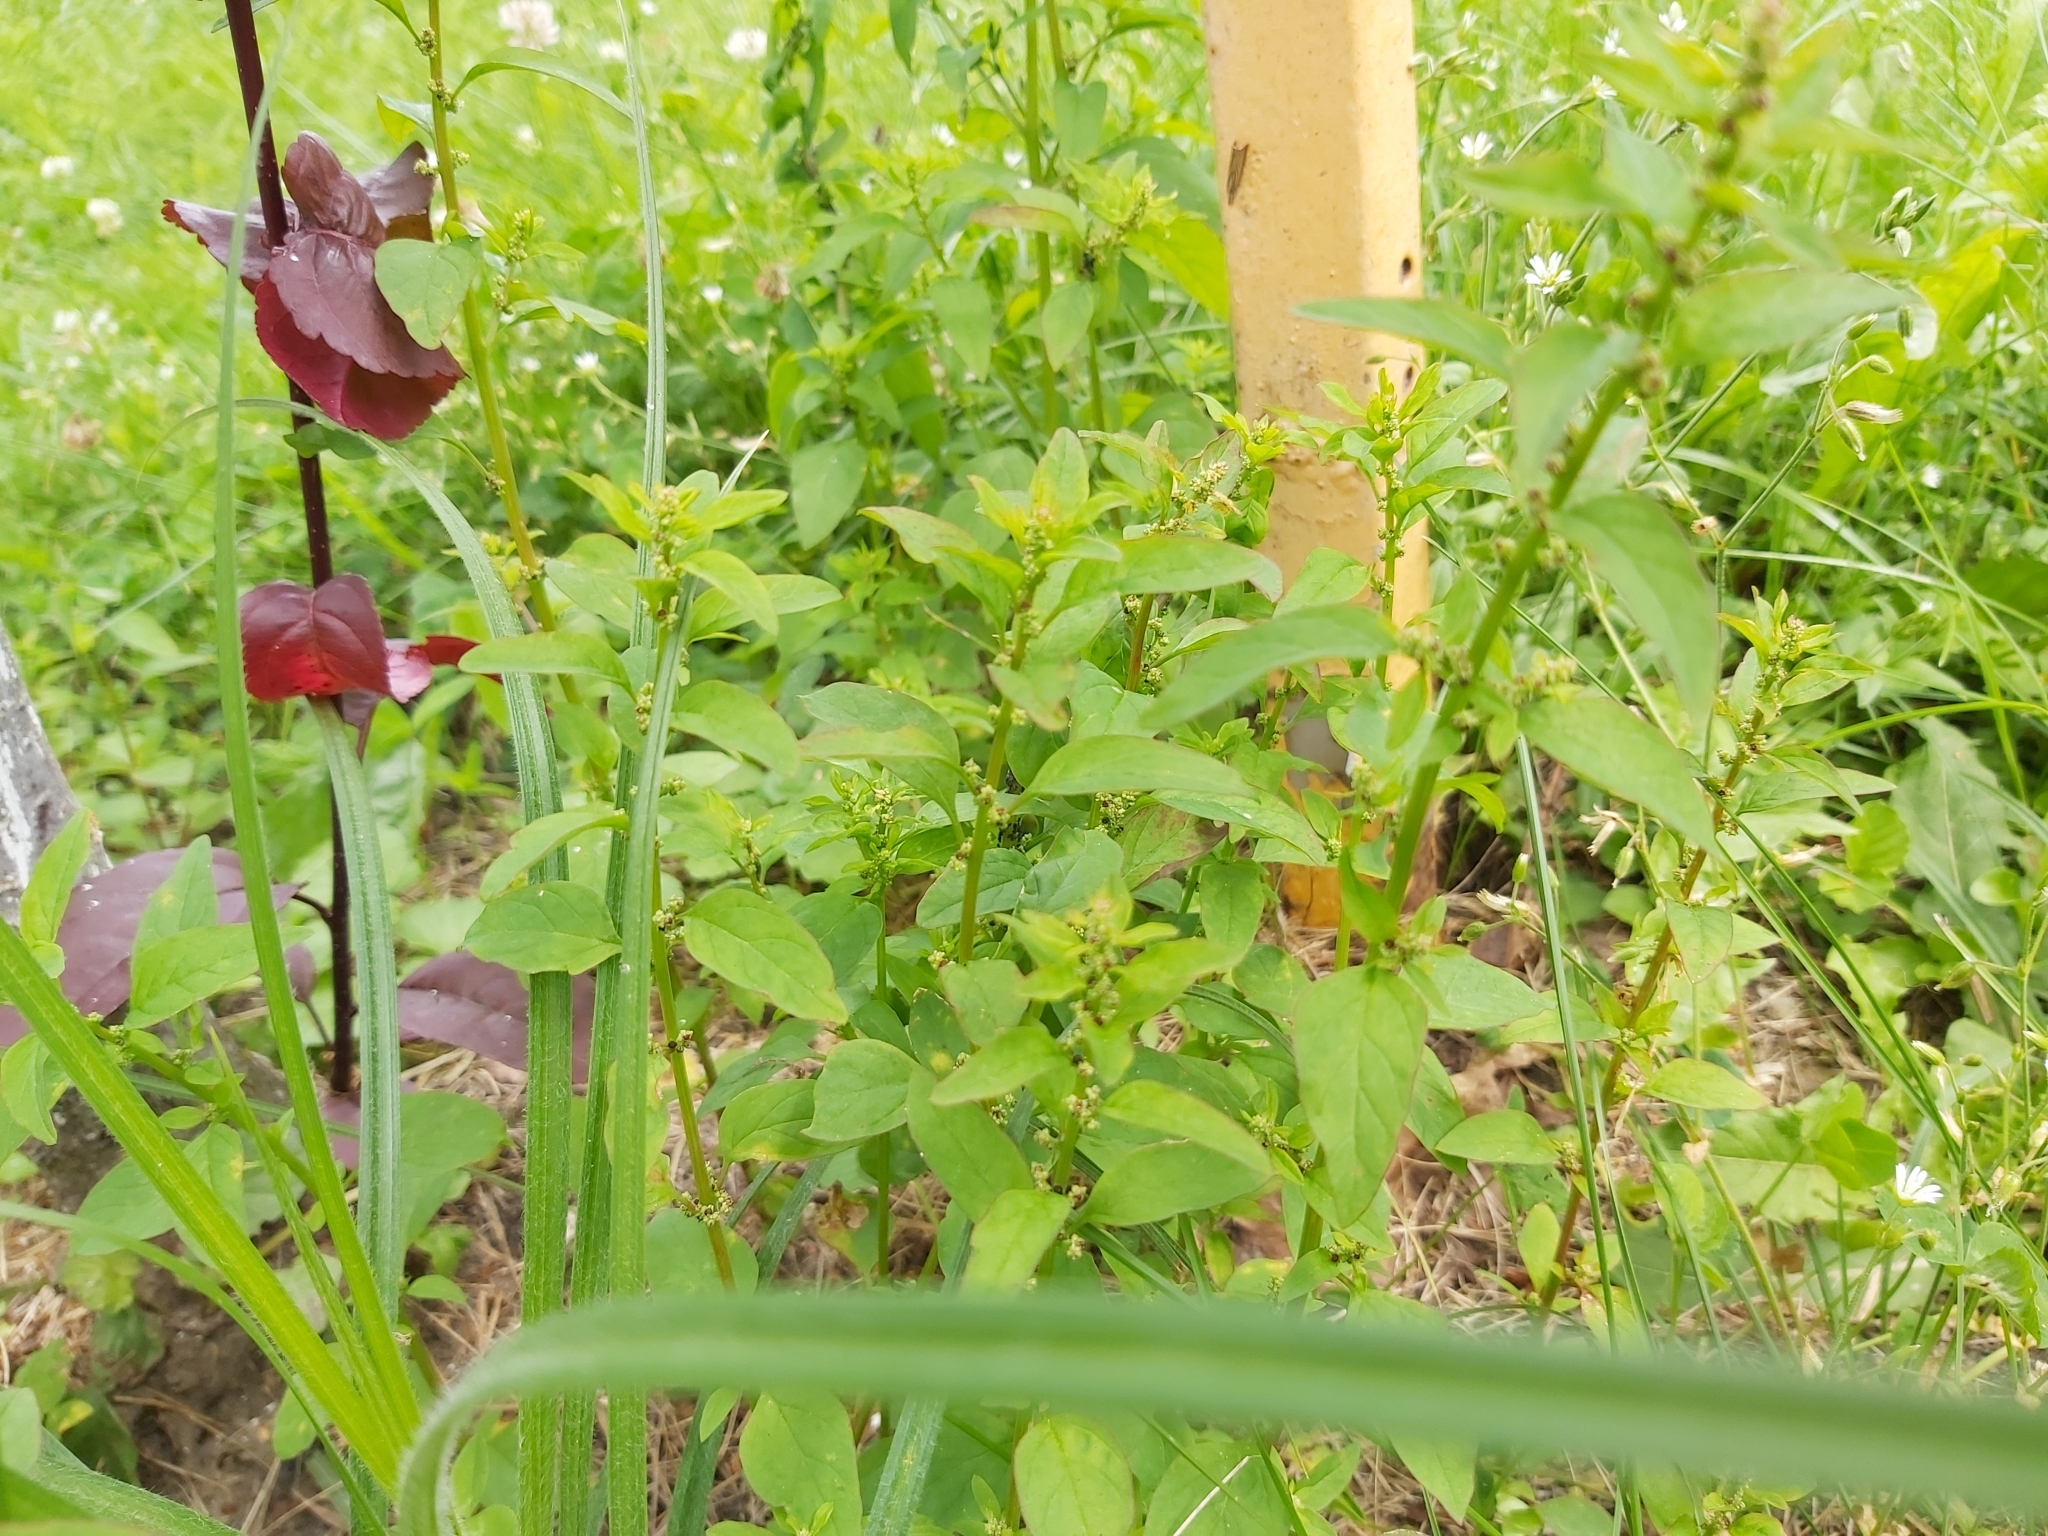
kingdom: Plantae
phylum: Tracheophyta
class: Magnoliopsida
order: Caryophyllales
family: Amaranthaceae
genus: Lipandra
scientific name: Lipandra polysperma
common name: Many-seed goosefoot
